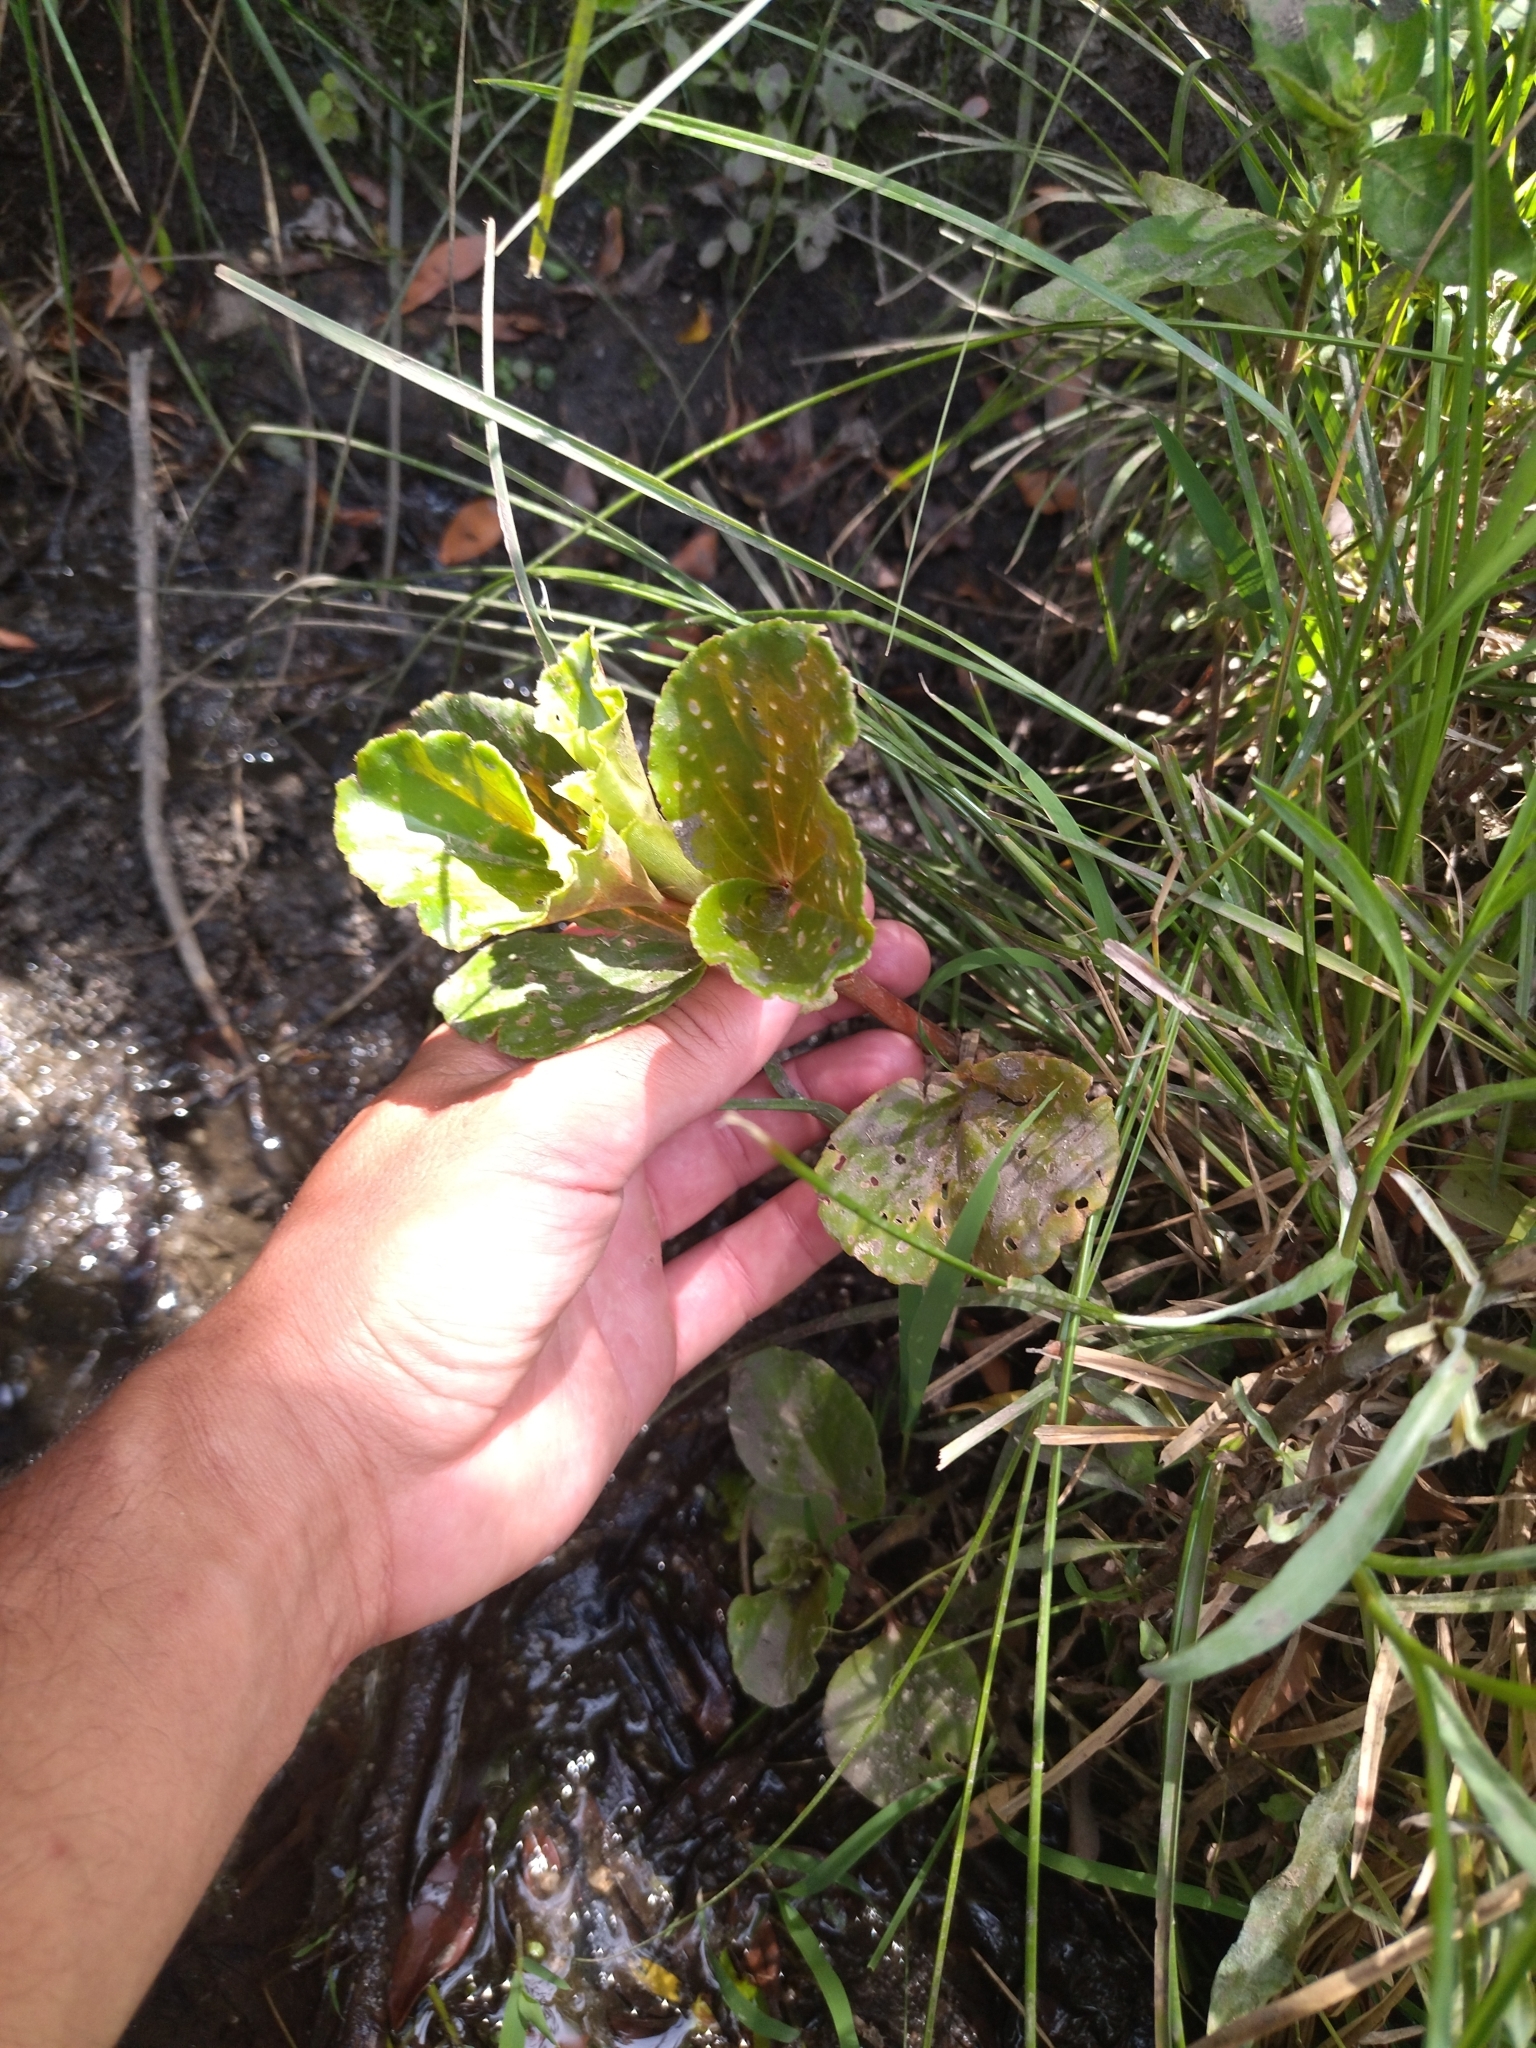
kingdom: Plantae
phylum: Tracheophyta
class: Magnoliopsida
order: Cucurbitales
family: Begoniaceae
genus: Begonia
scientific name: Begonia cucullata
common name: Clubbed begonia
